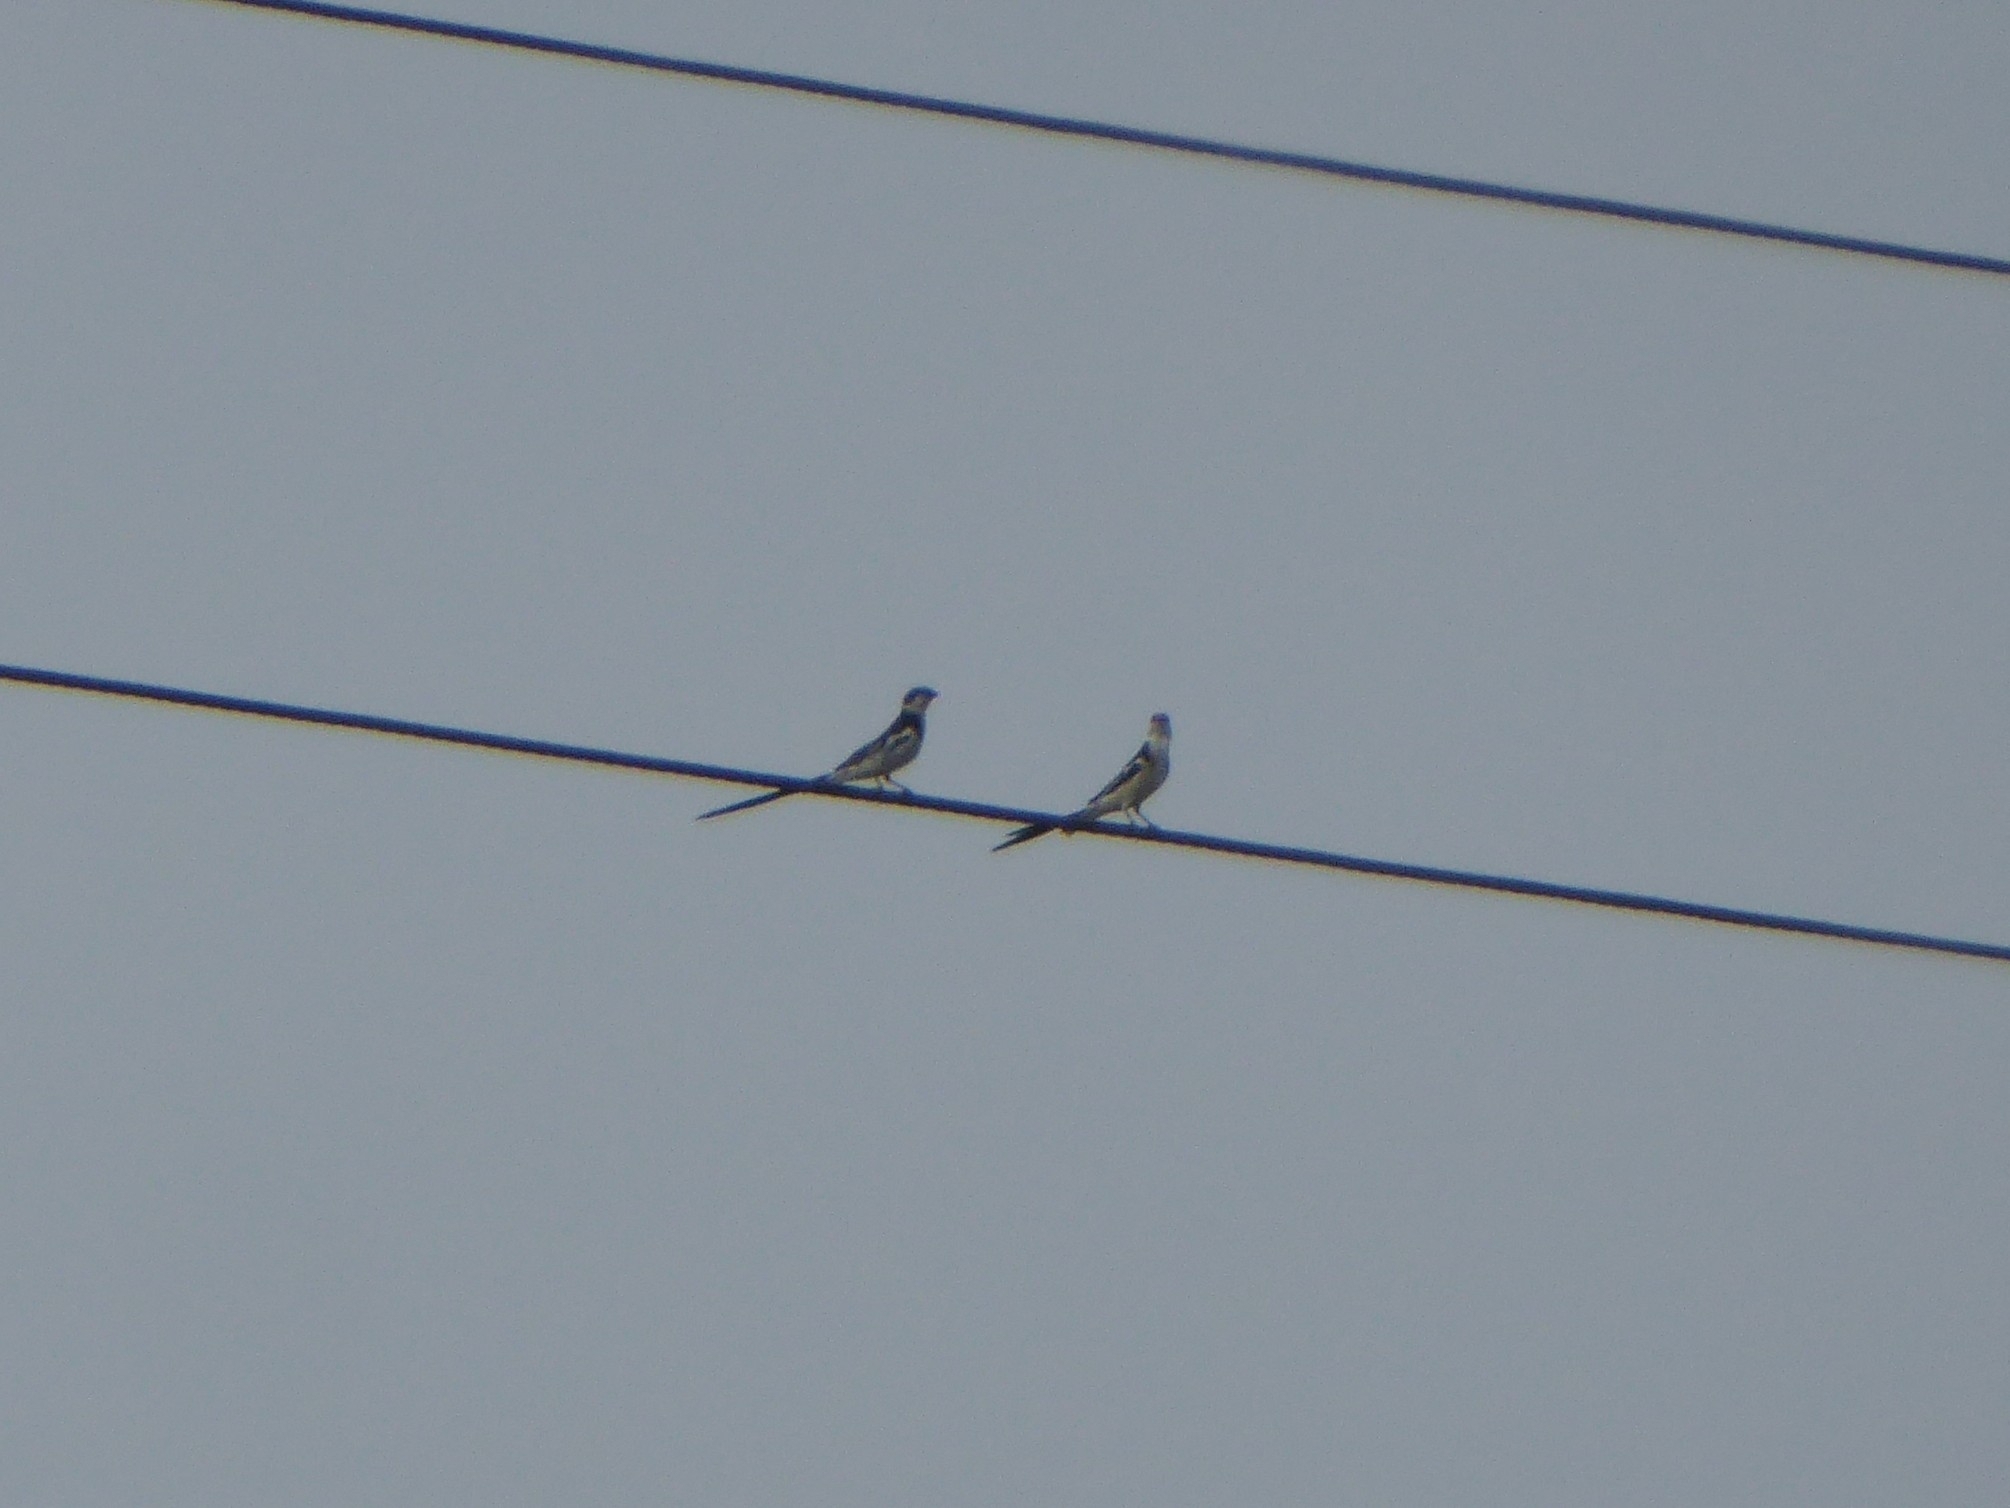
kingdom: Animalia
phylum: Chordata
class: Aves
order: Passeriformes
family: Viduidae
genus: Vidua
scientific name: Vidua macroura
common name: Pin-tailed whydah
